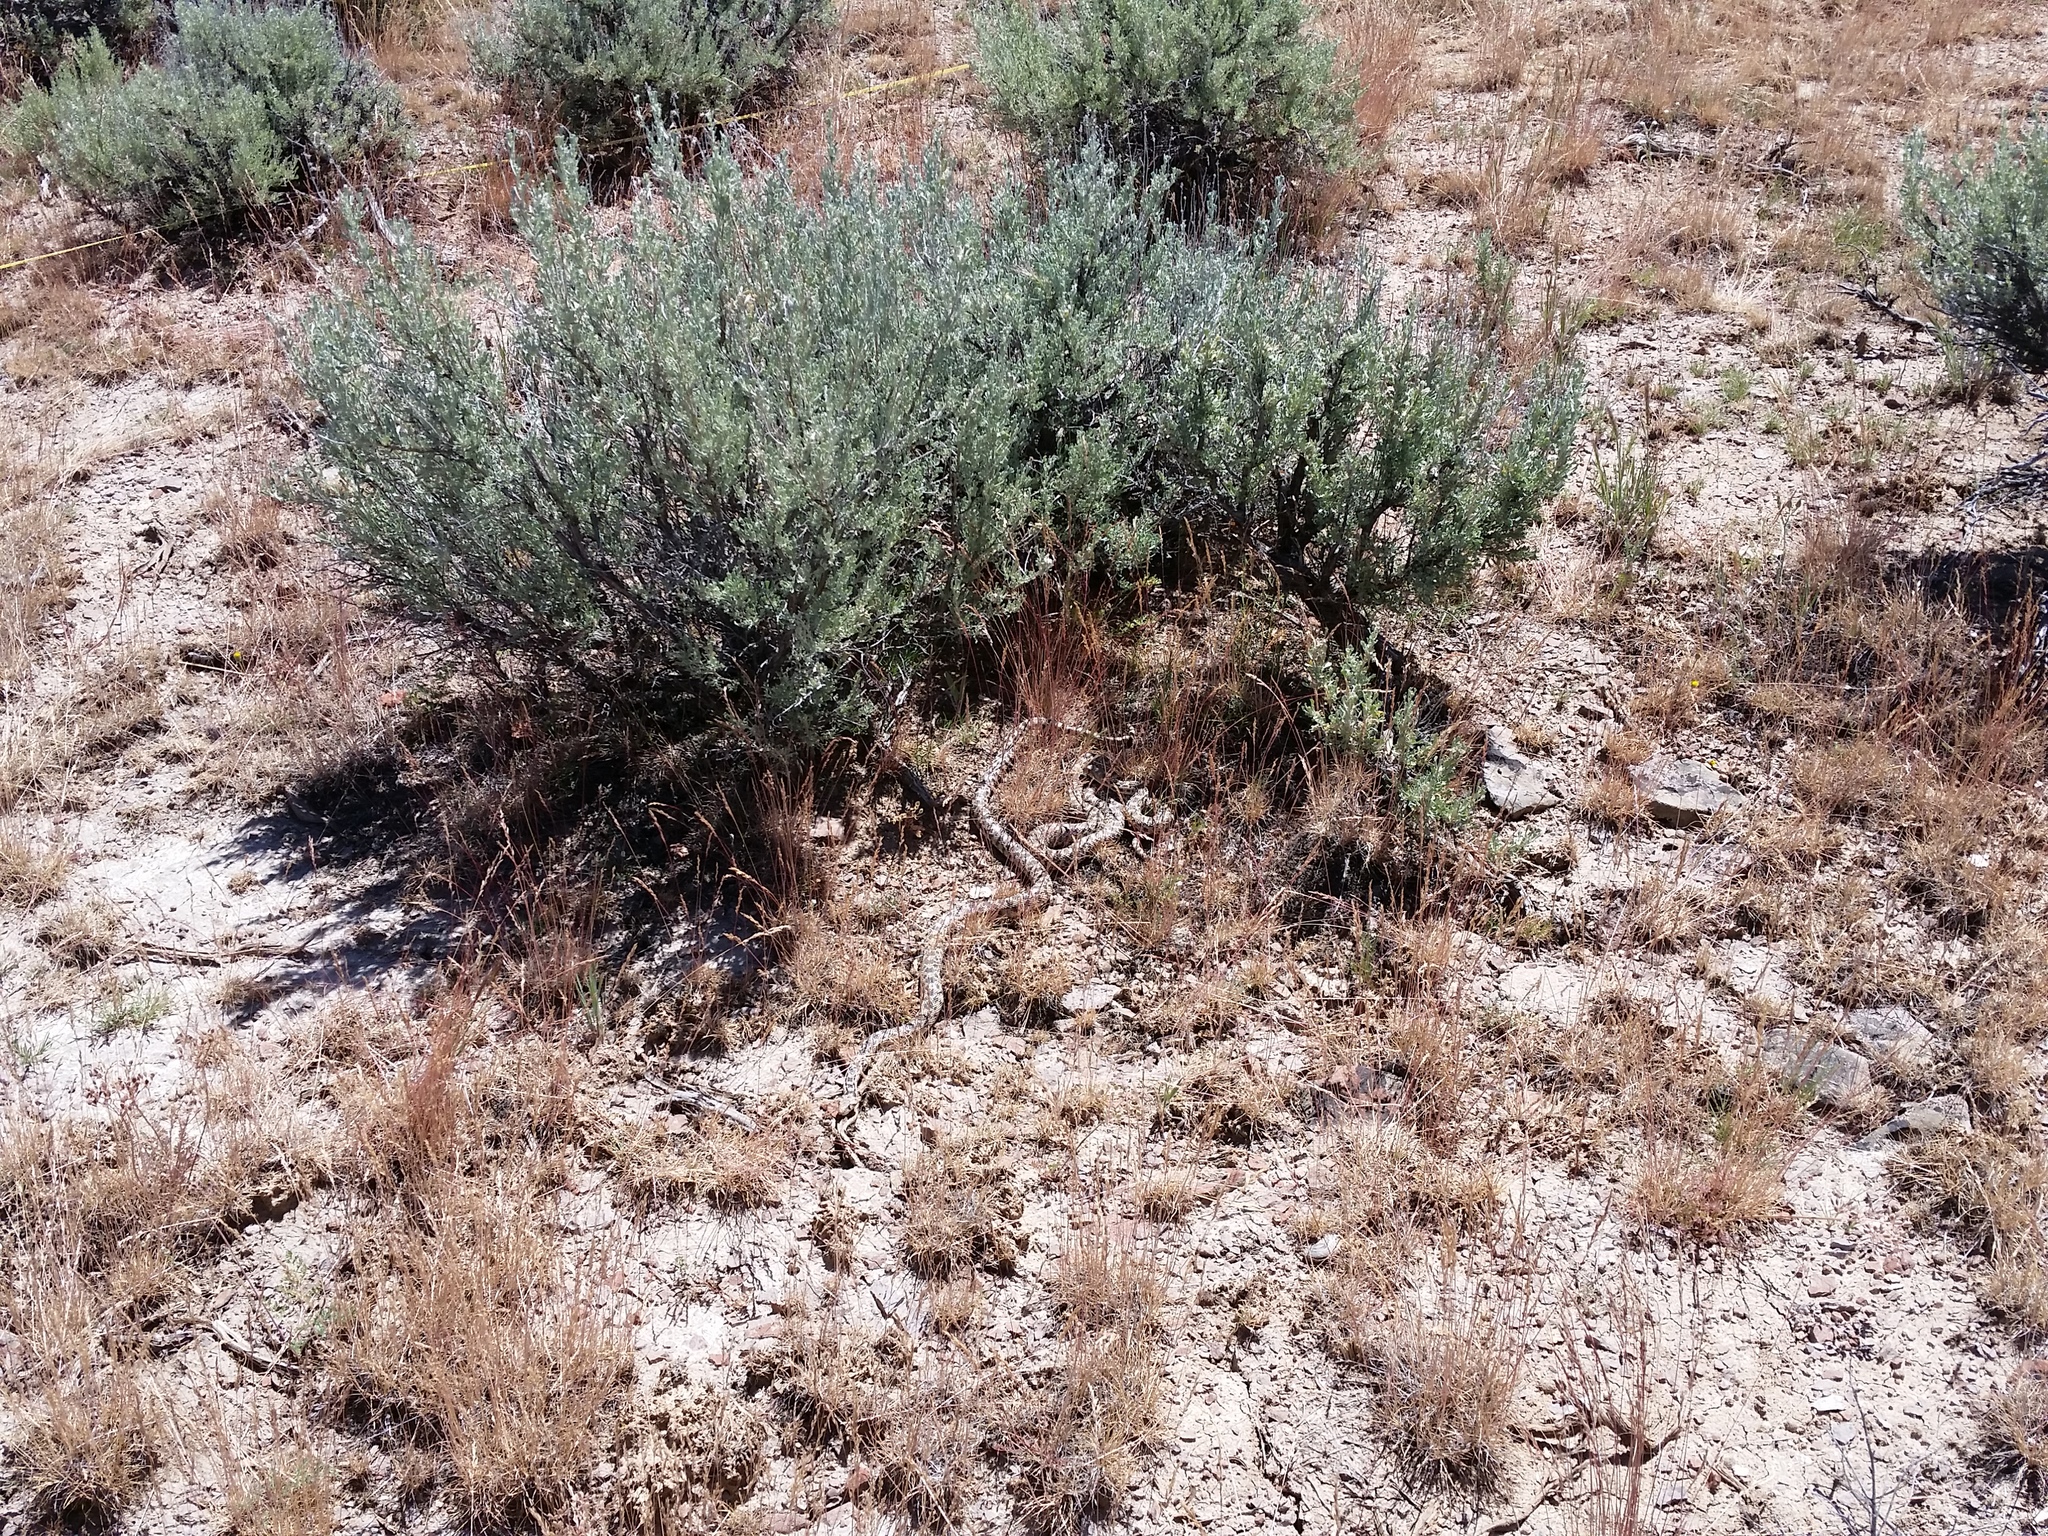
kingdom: Animalia
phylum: Chordata
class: Squamata
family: Colubridae
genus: Pituophis
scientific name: Pituophis catenifer
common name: Gopher snake
